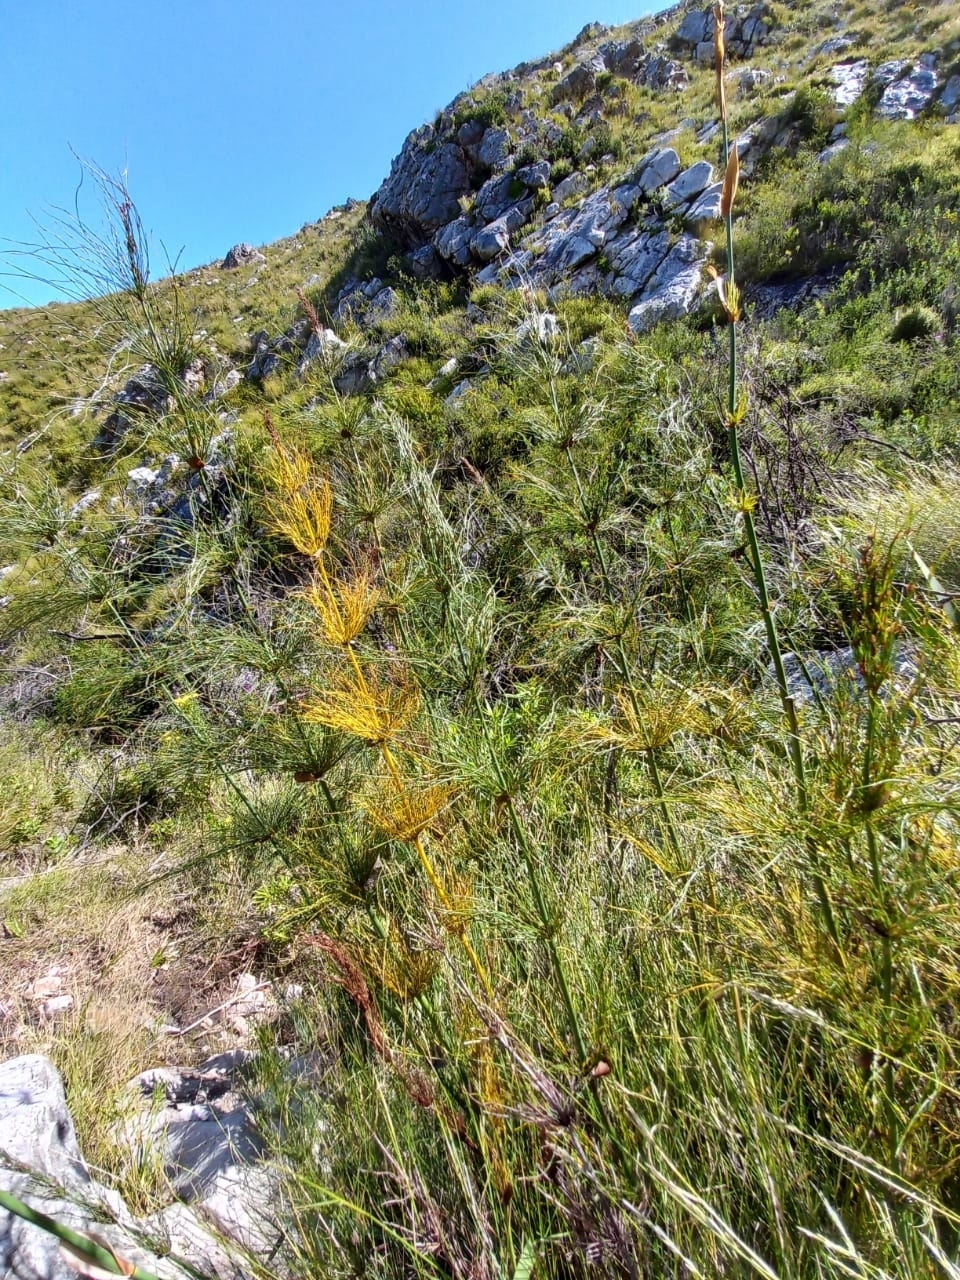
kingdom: Plantae
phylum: Tracheophyta
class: Liliopsida
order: Poales
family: Restionaceae
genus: Elegia
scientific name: Elegia capensis
